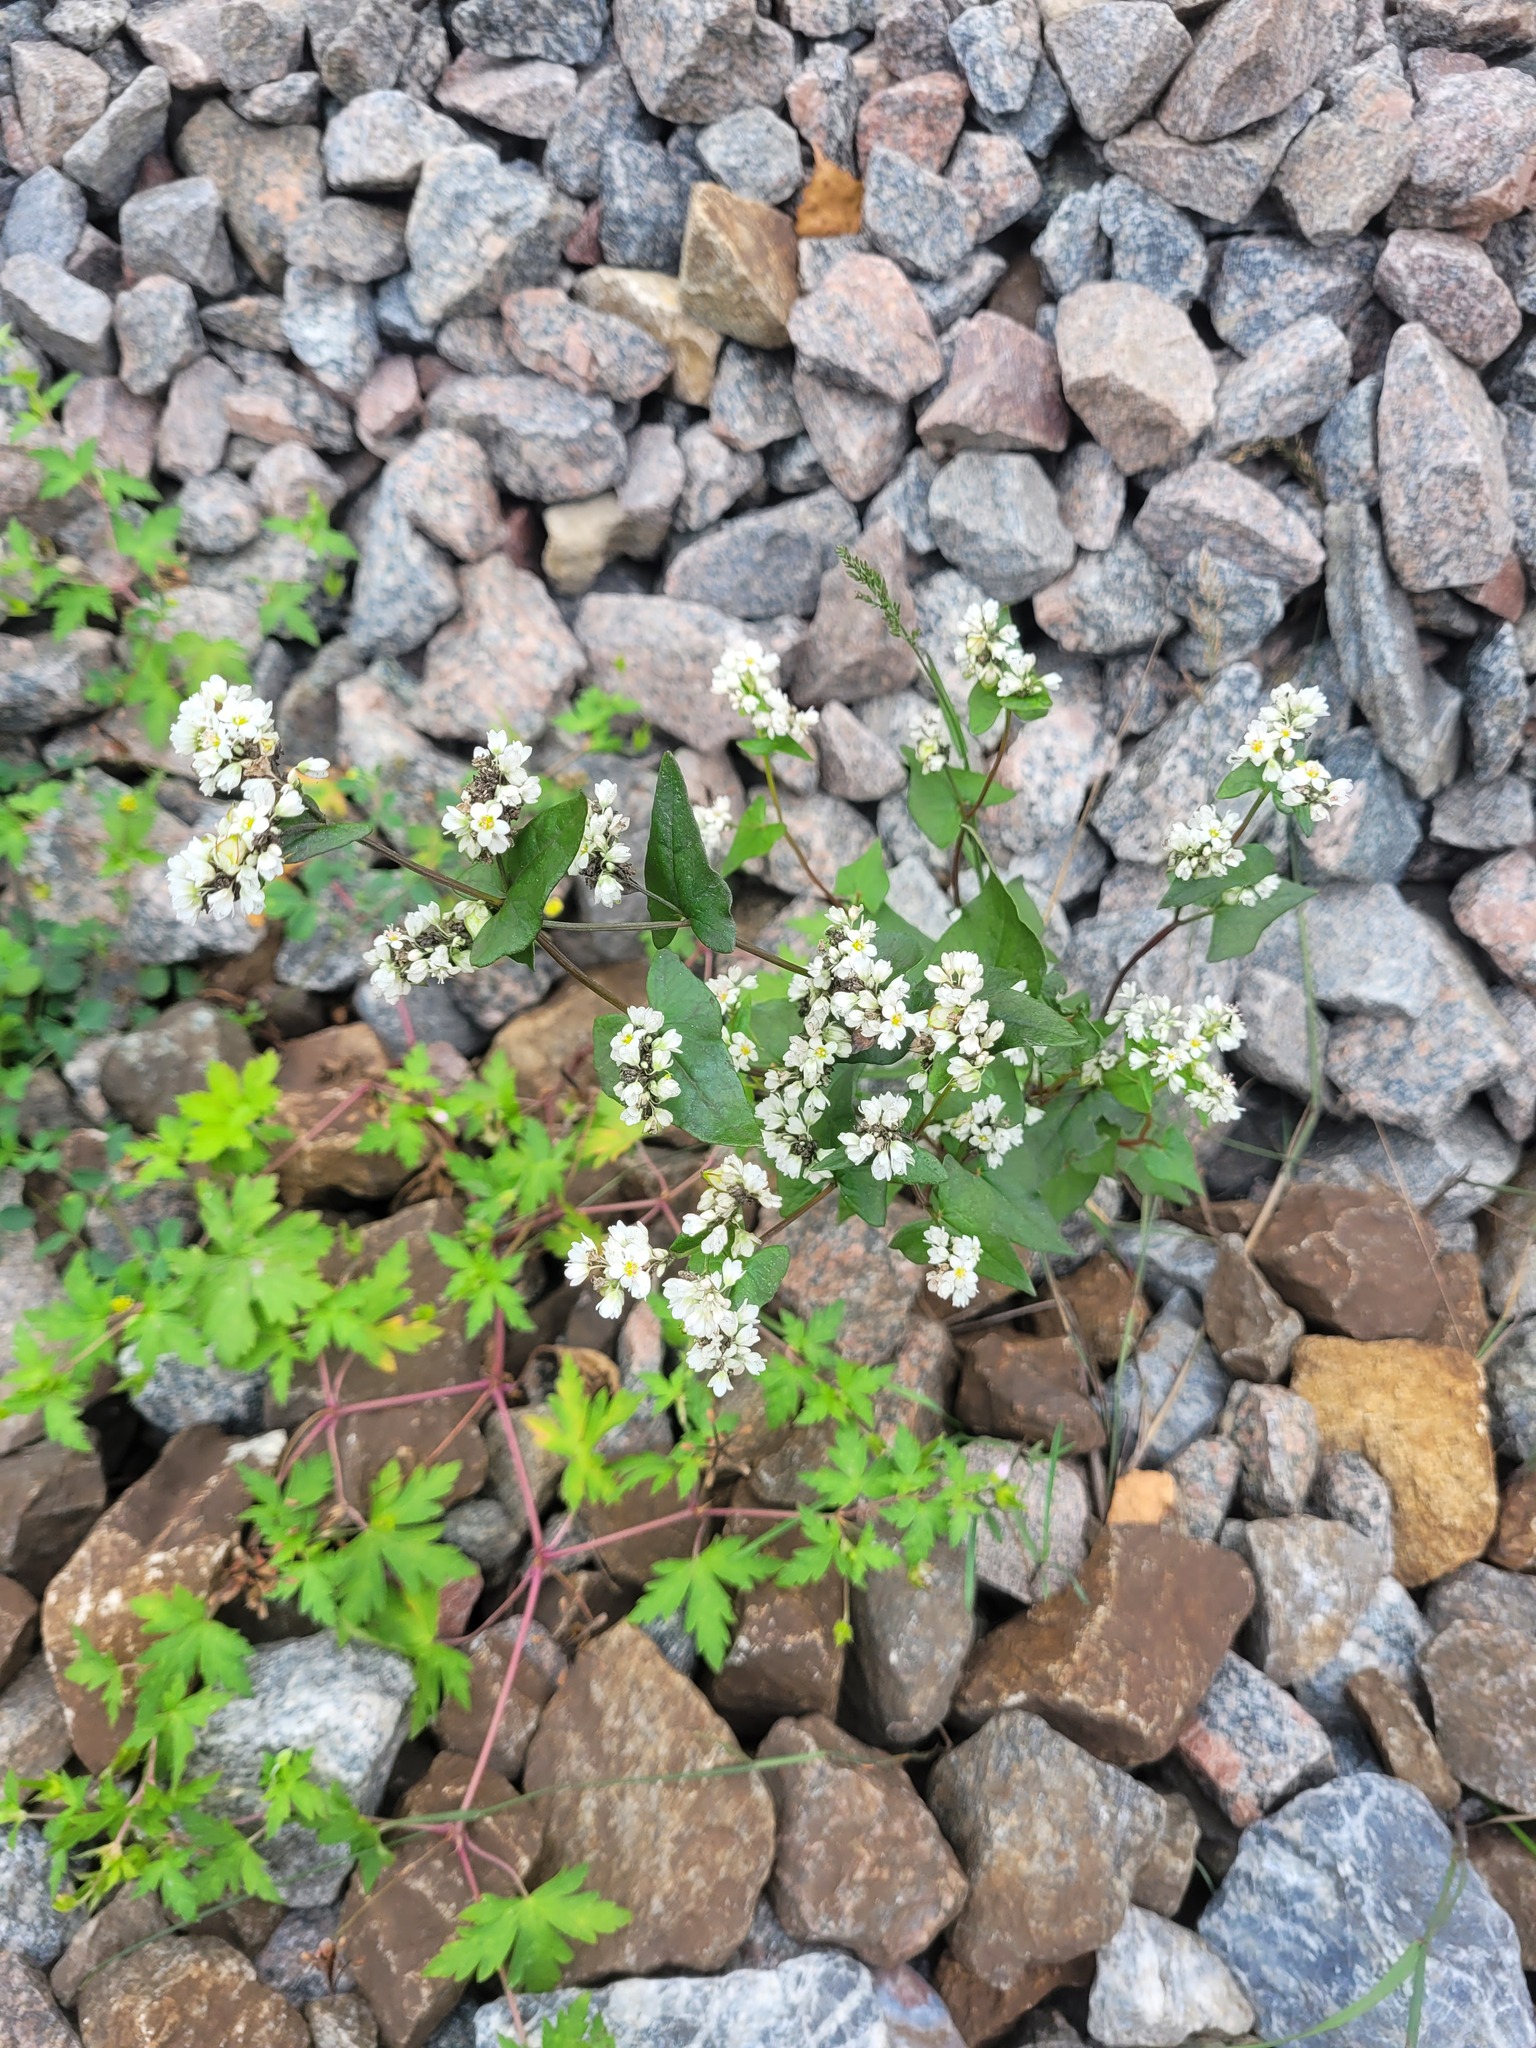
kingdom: Plantae
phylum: Tracheophyta
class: Magnoliopsida
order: Caryophyllales
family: Polygonaceae
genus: Fagopyrum
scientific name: Fagopyrum esculentum
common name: Buckwheat
